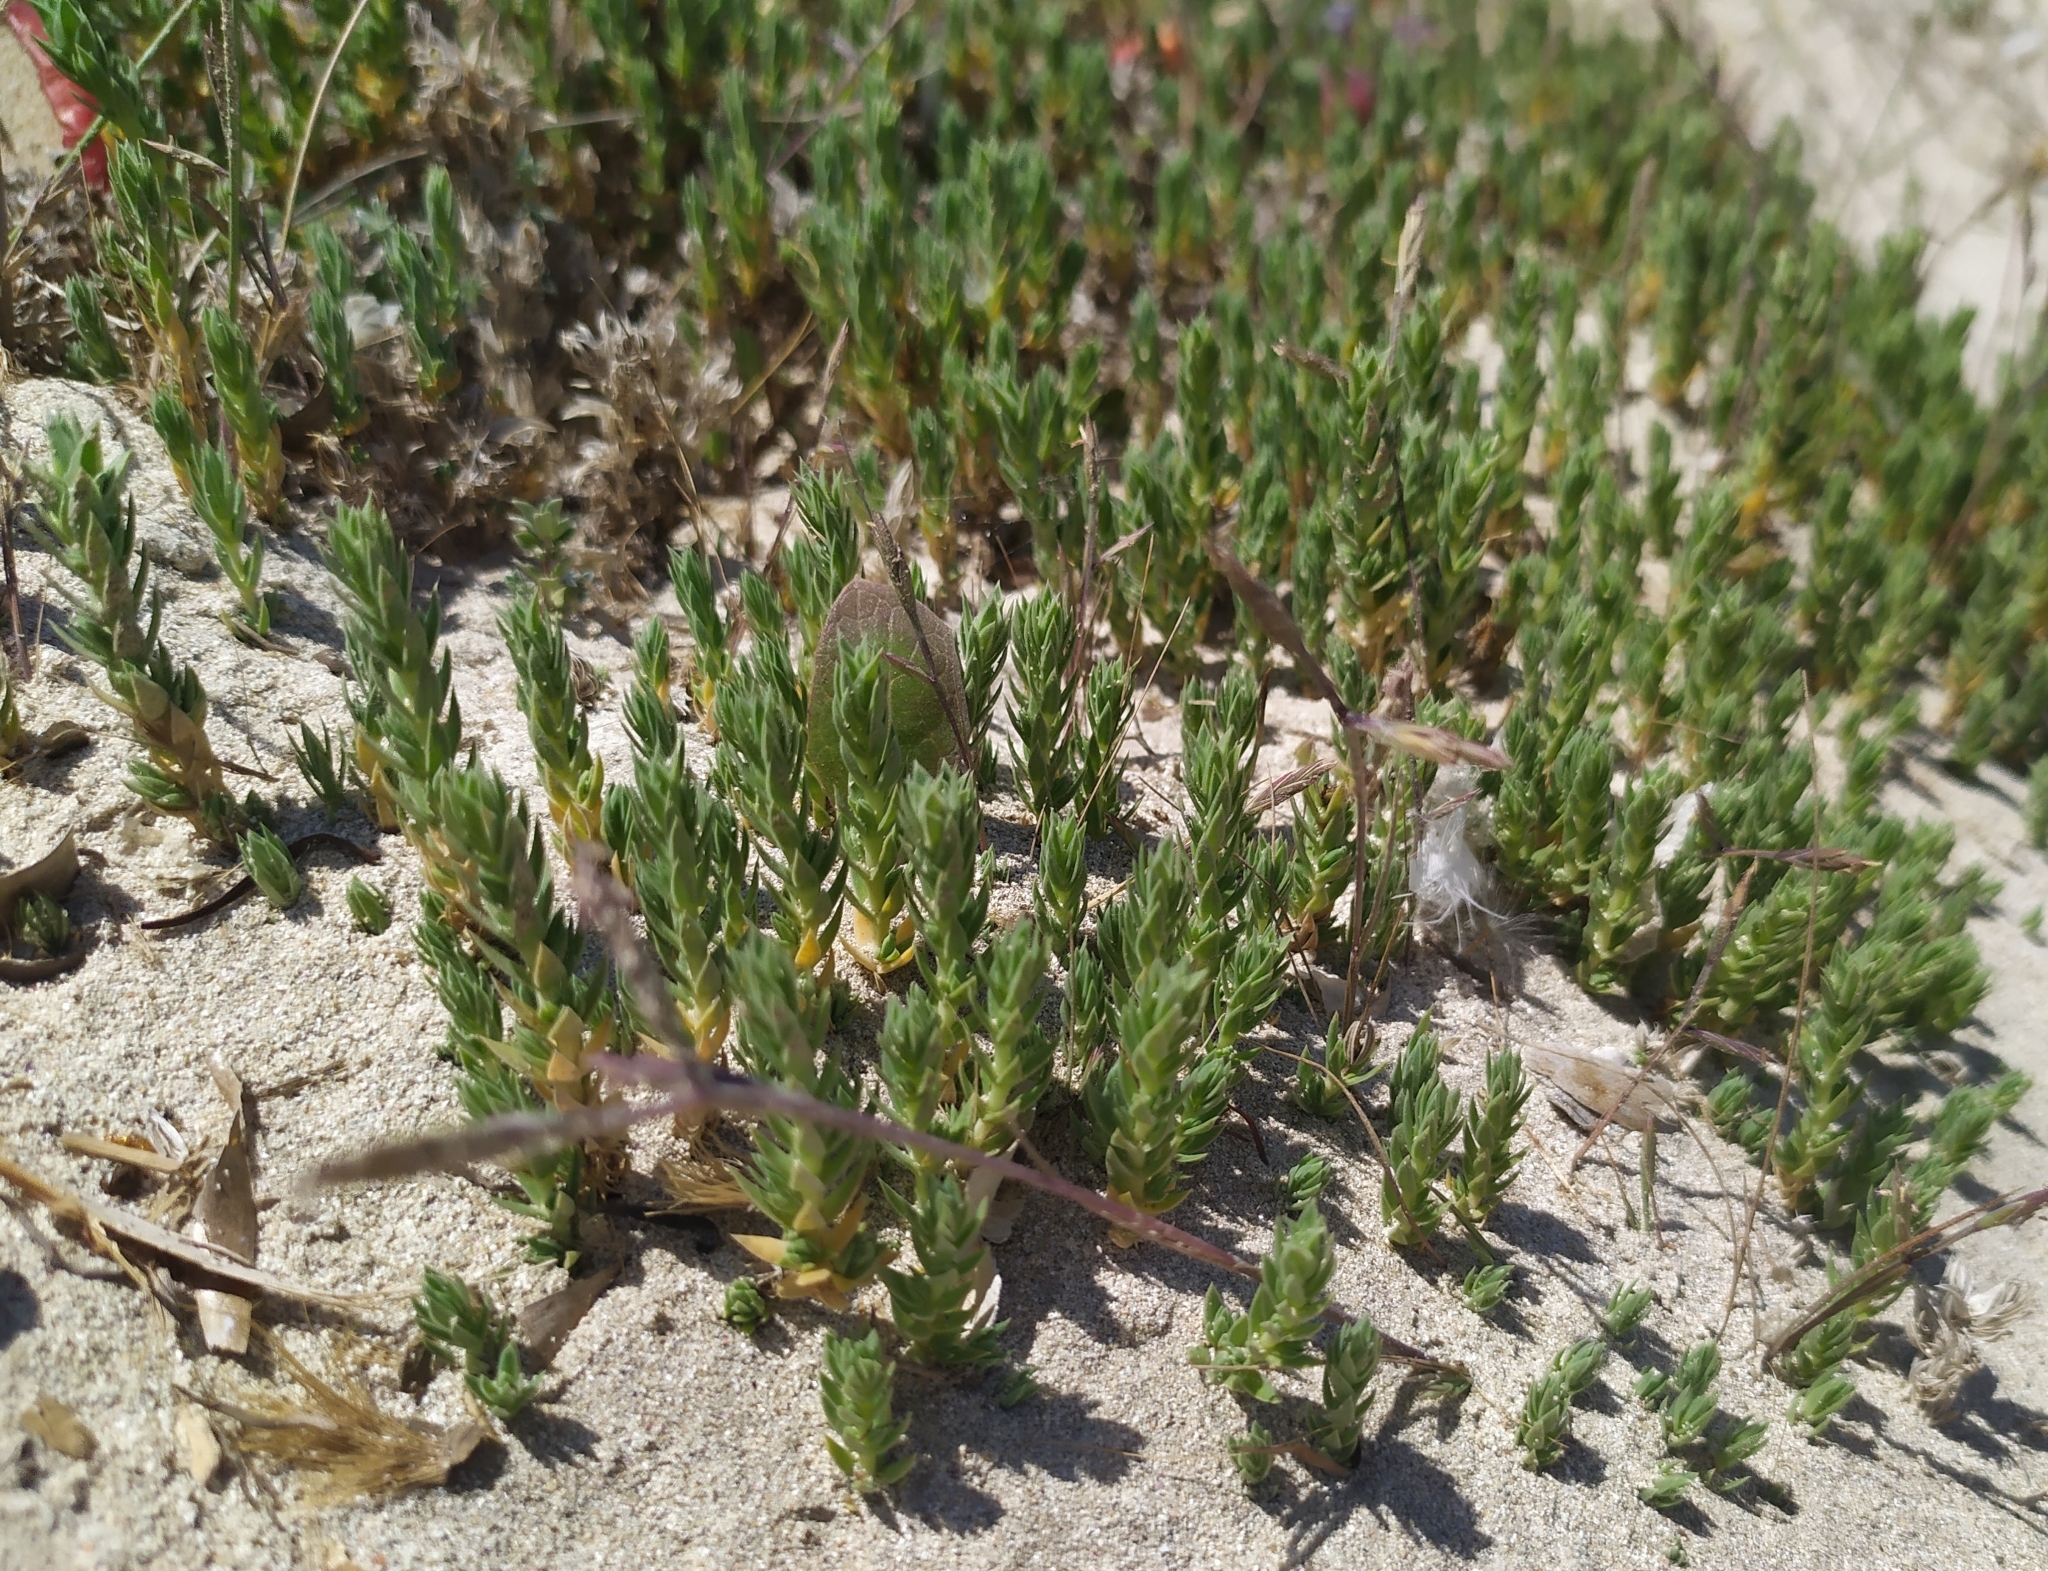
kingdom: Plantae
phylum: Tracheophyta
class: Magnoliopsida
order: Gentianales
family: Rubiaceae
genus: Crucianella
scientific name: Crucianella maritima
